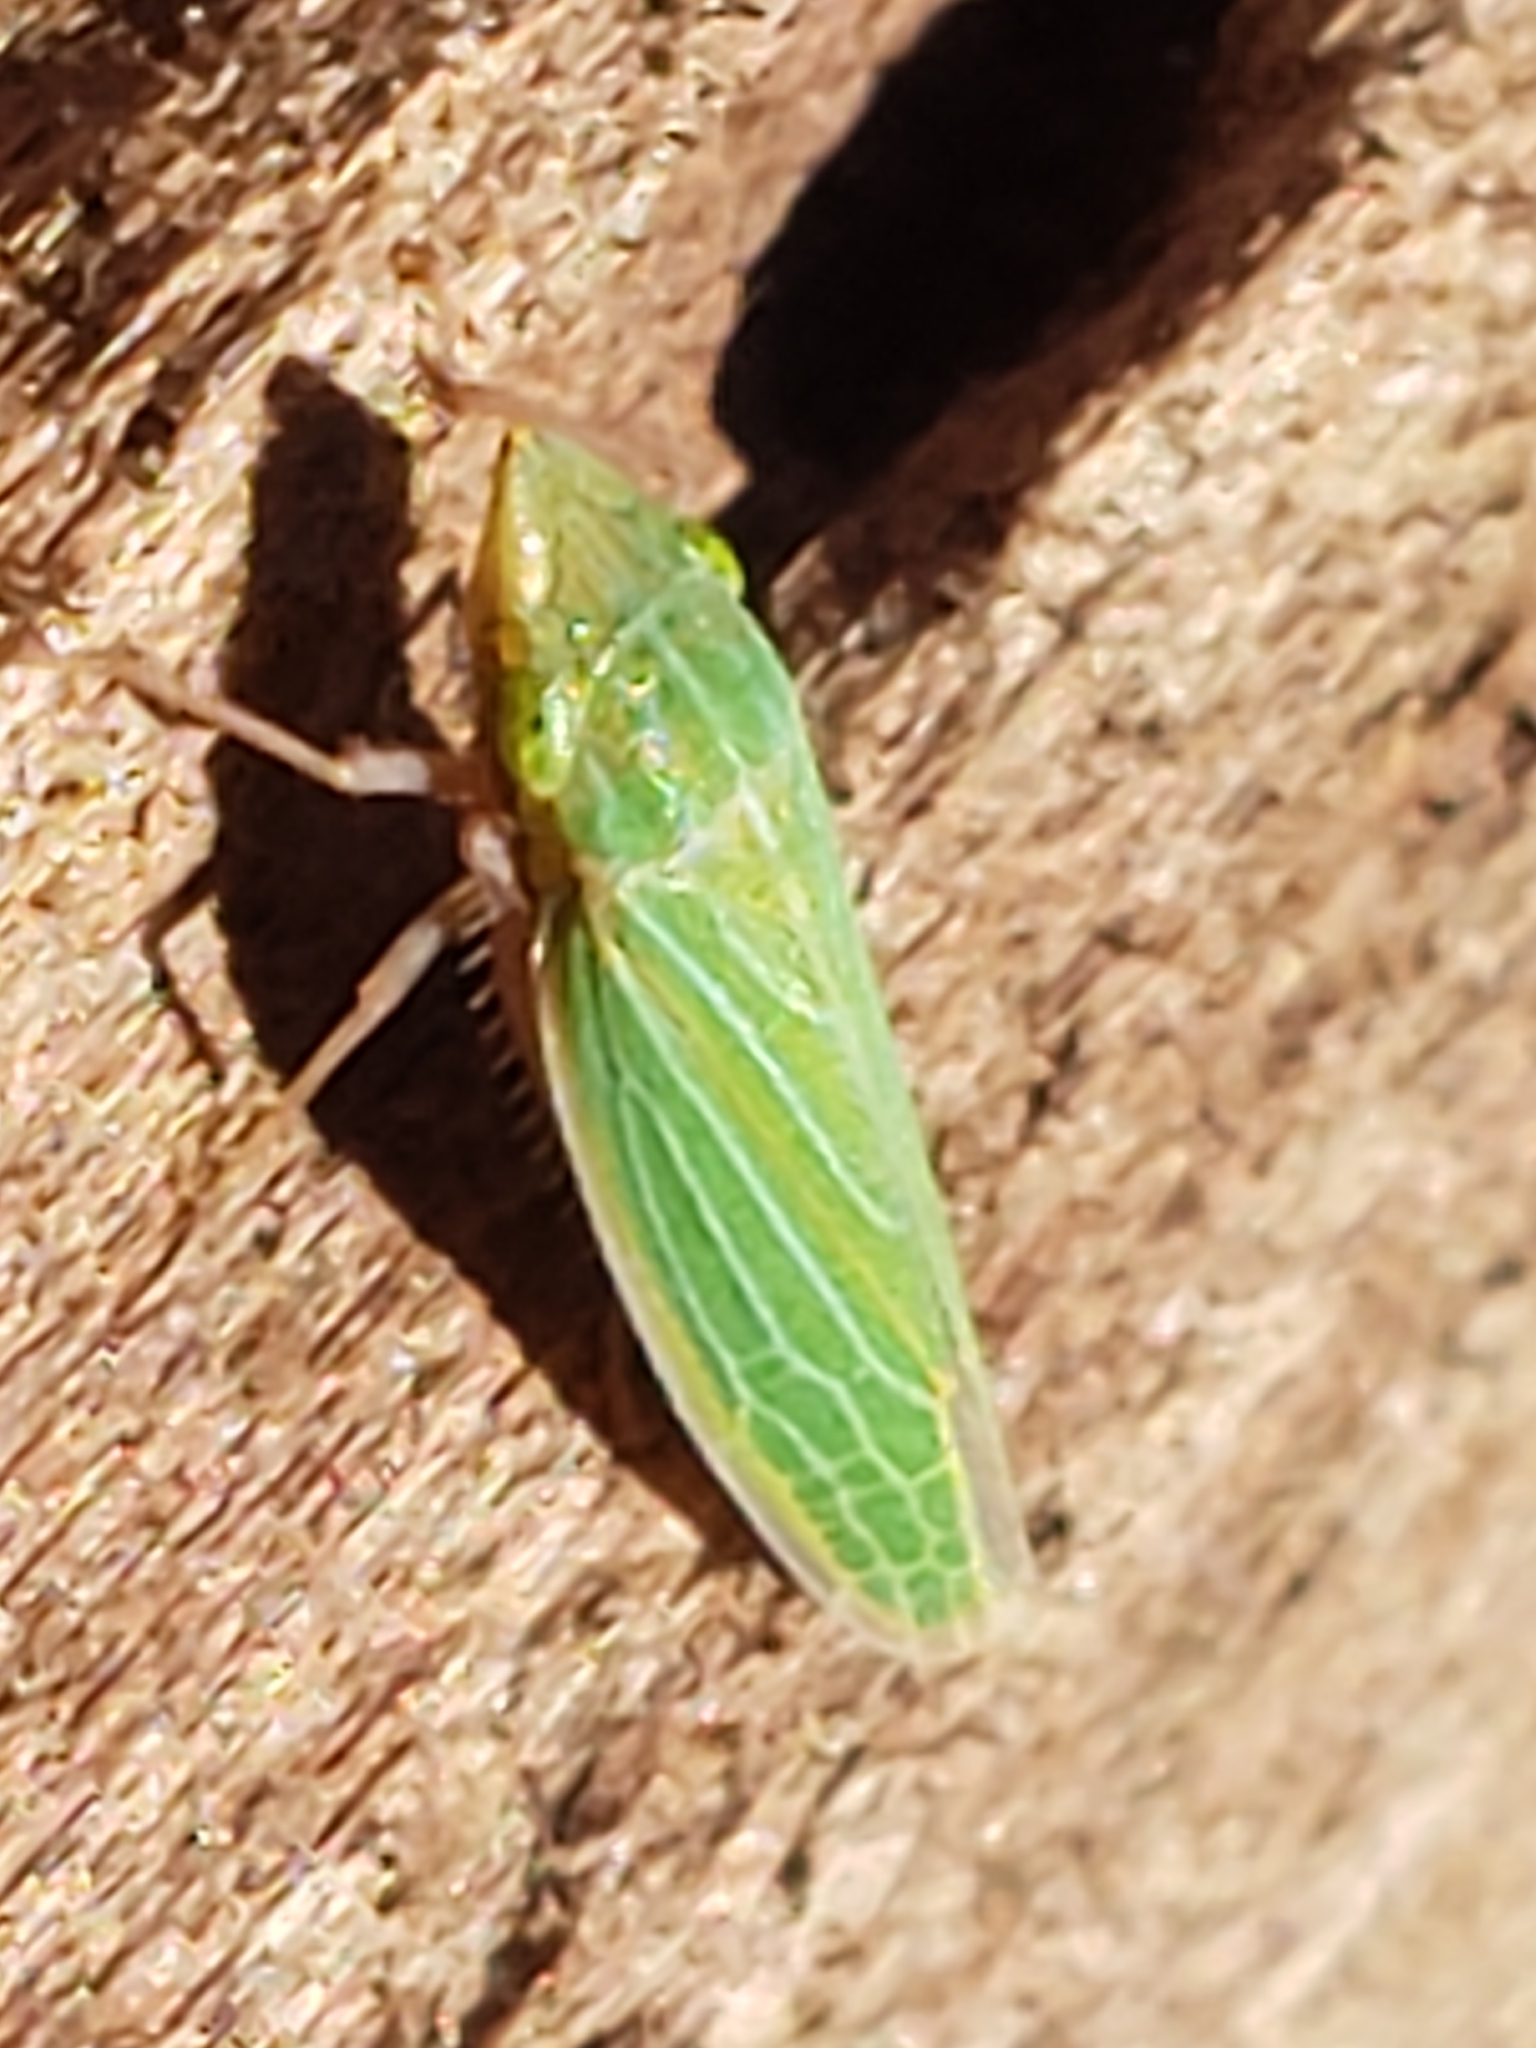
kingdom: Animalia
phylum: Arthropoda
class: Insecta
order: Hemiptera
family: Cicadellidae
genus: Draeculacephala
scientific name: Draeculacephala mollipes
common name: Watercress sharpshooter
